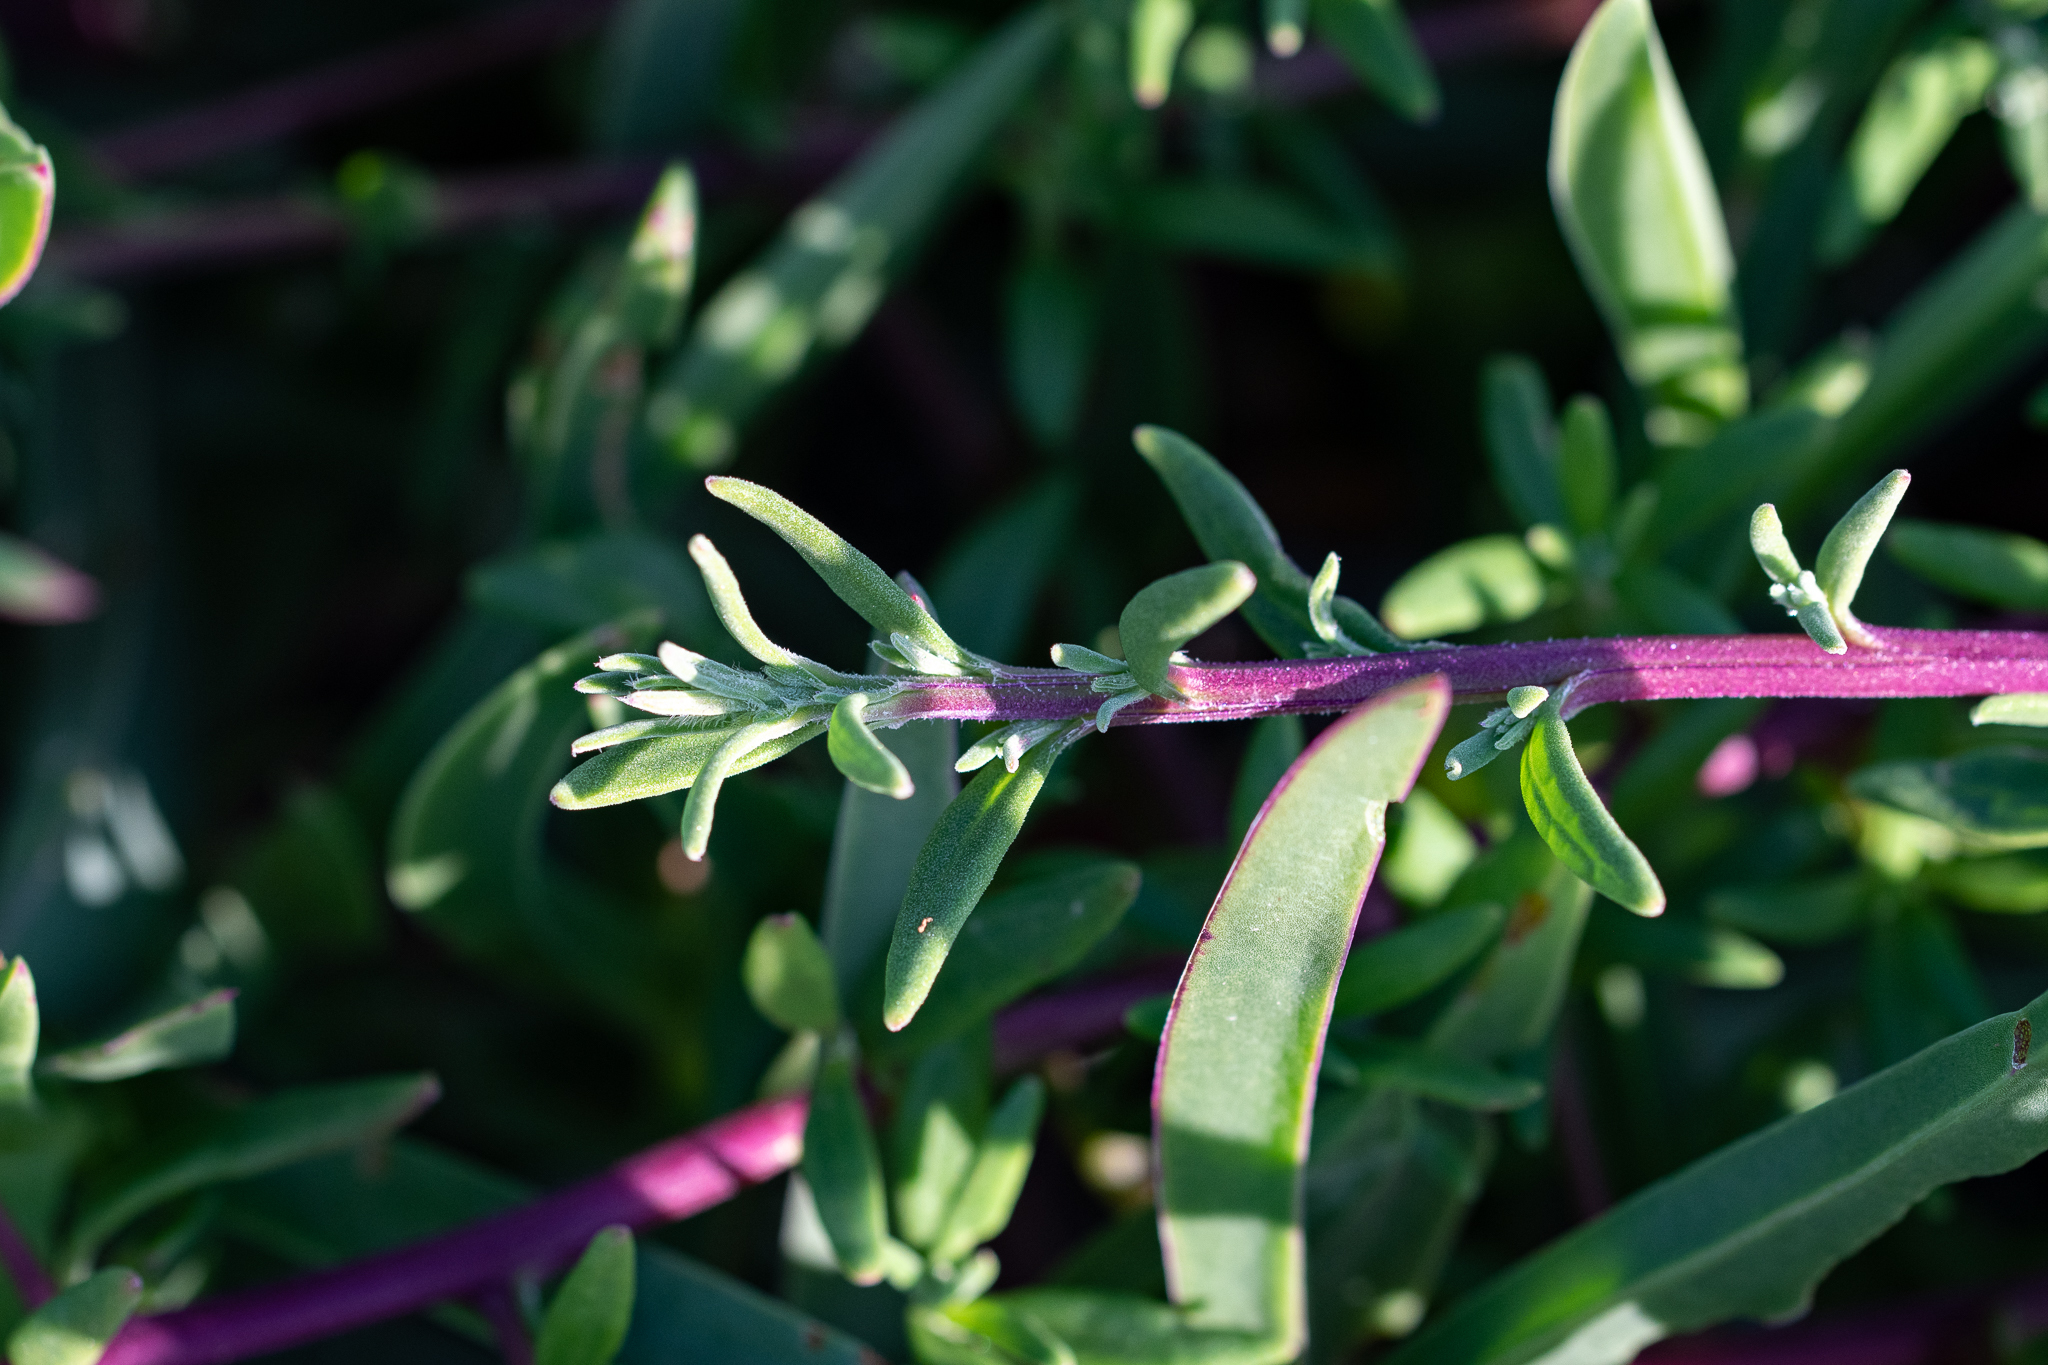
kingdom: Plantae
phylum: Tracheophyta
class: Magnoliopsida
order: Caryophyllales
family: Aizoaceae
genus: Tetragonia
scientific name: Tetragonia fruticosa
